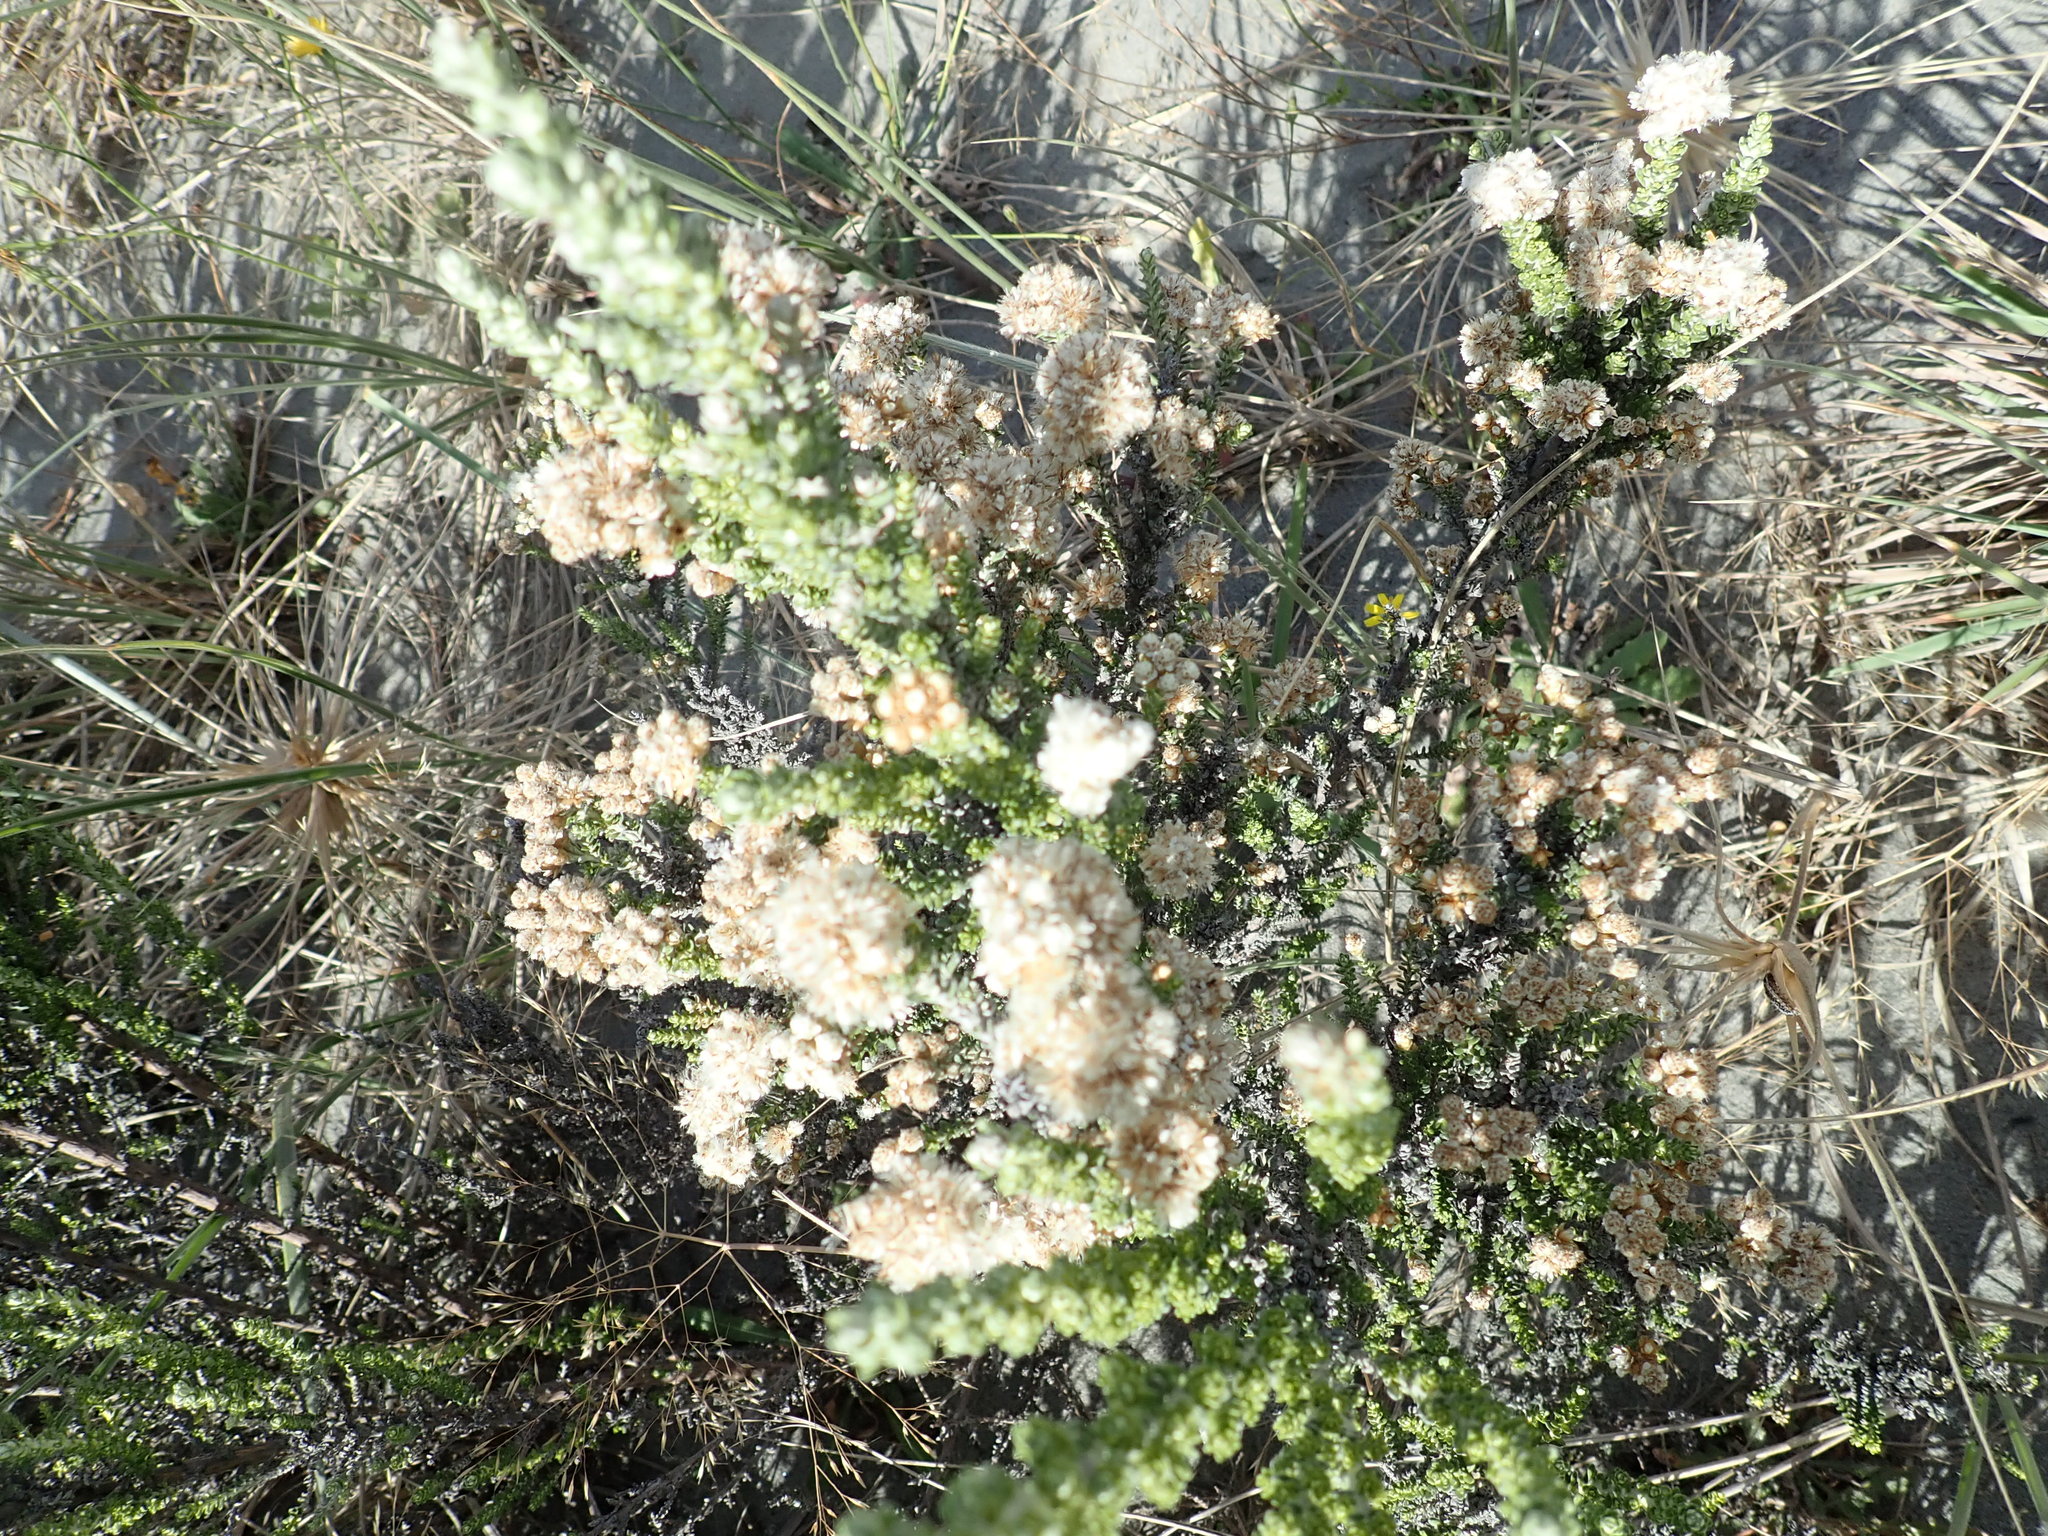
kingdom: Plantae
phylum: Tracheophyta
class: Magnoliopsida
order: Asterales
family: Asteraceae
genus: Ozothamnus
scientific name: Ozothamnus leptophyllus
